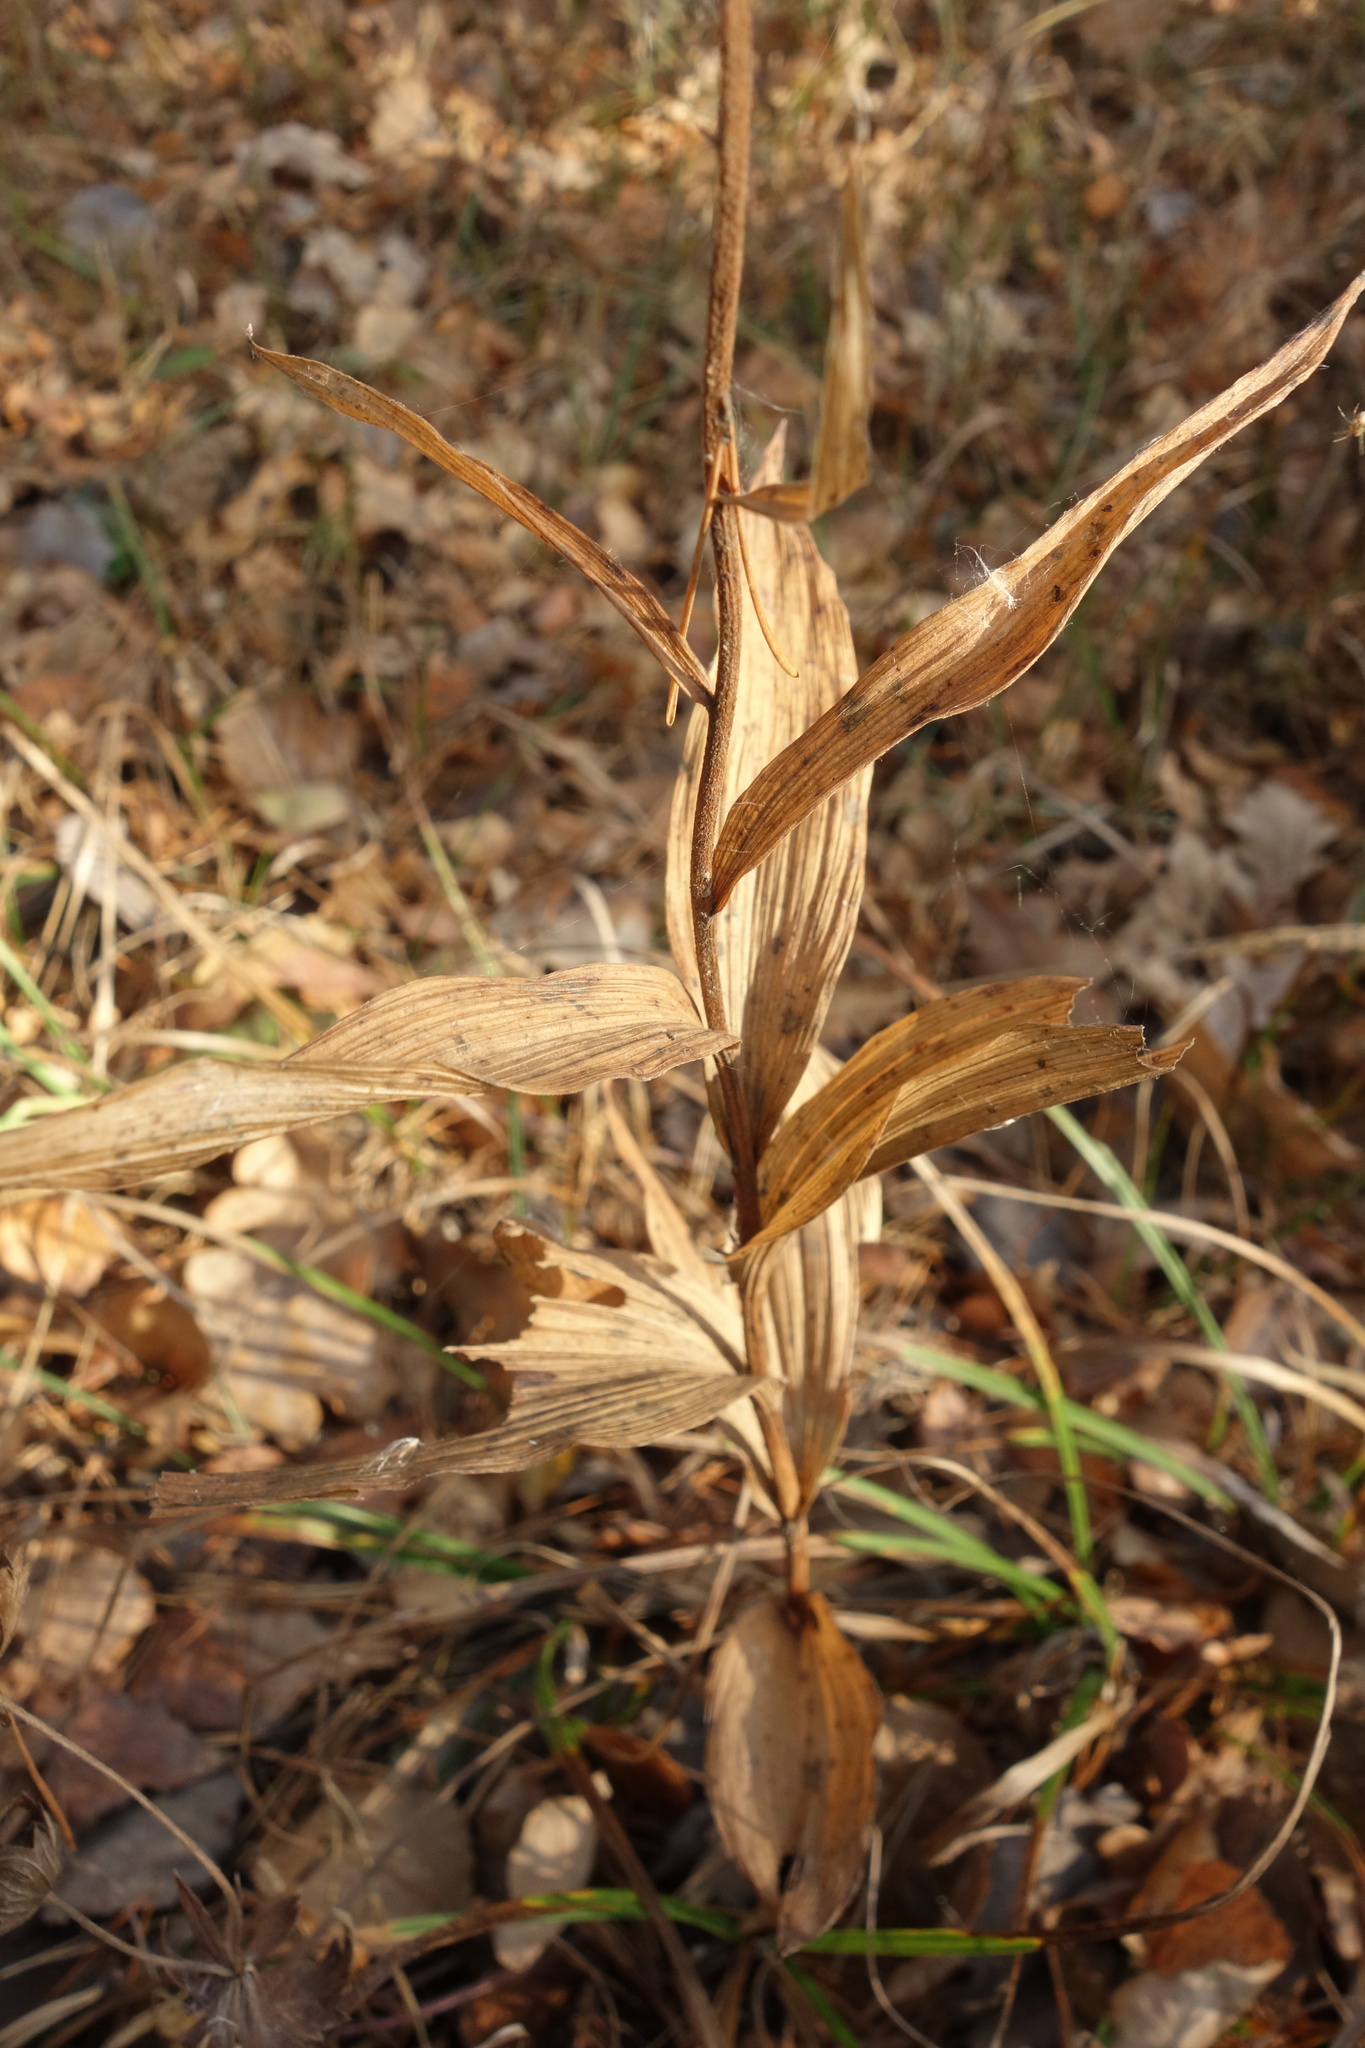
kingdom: Plantae
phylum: Tracheophyta
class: Liliopsida
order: Asparagales
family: Orchidaceae
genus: Epipactis
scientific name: Epipactis helleborine
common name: Broad-leaved helleborine
